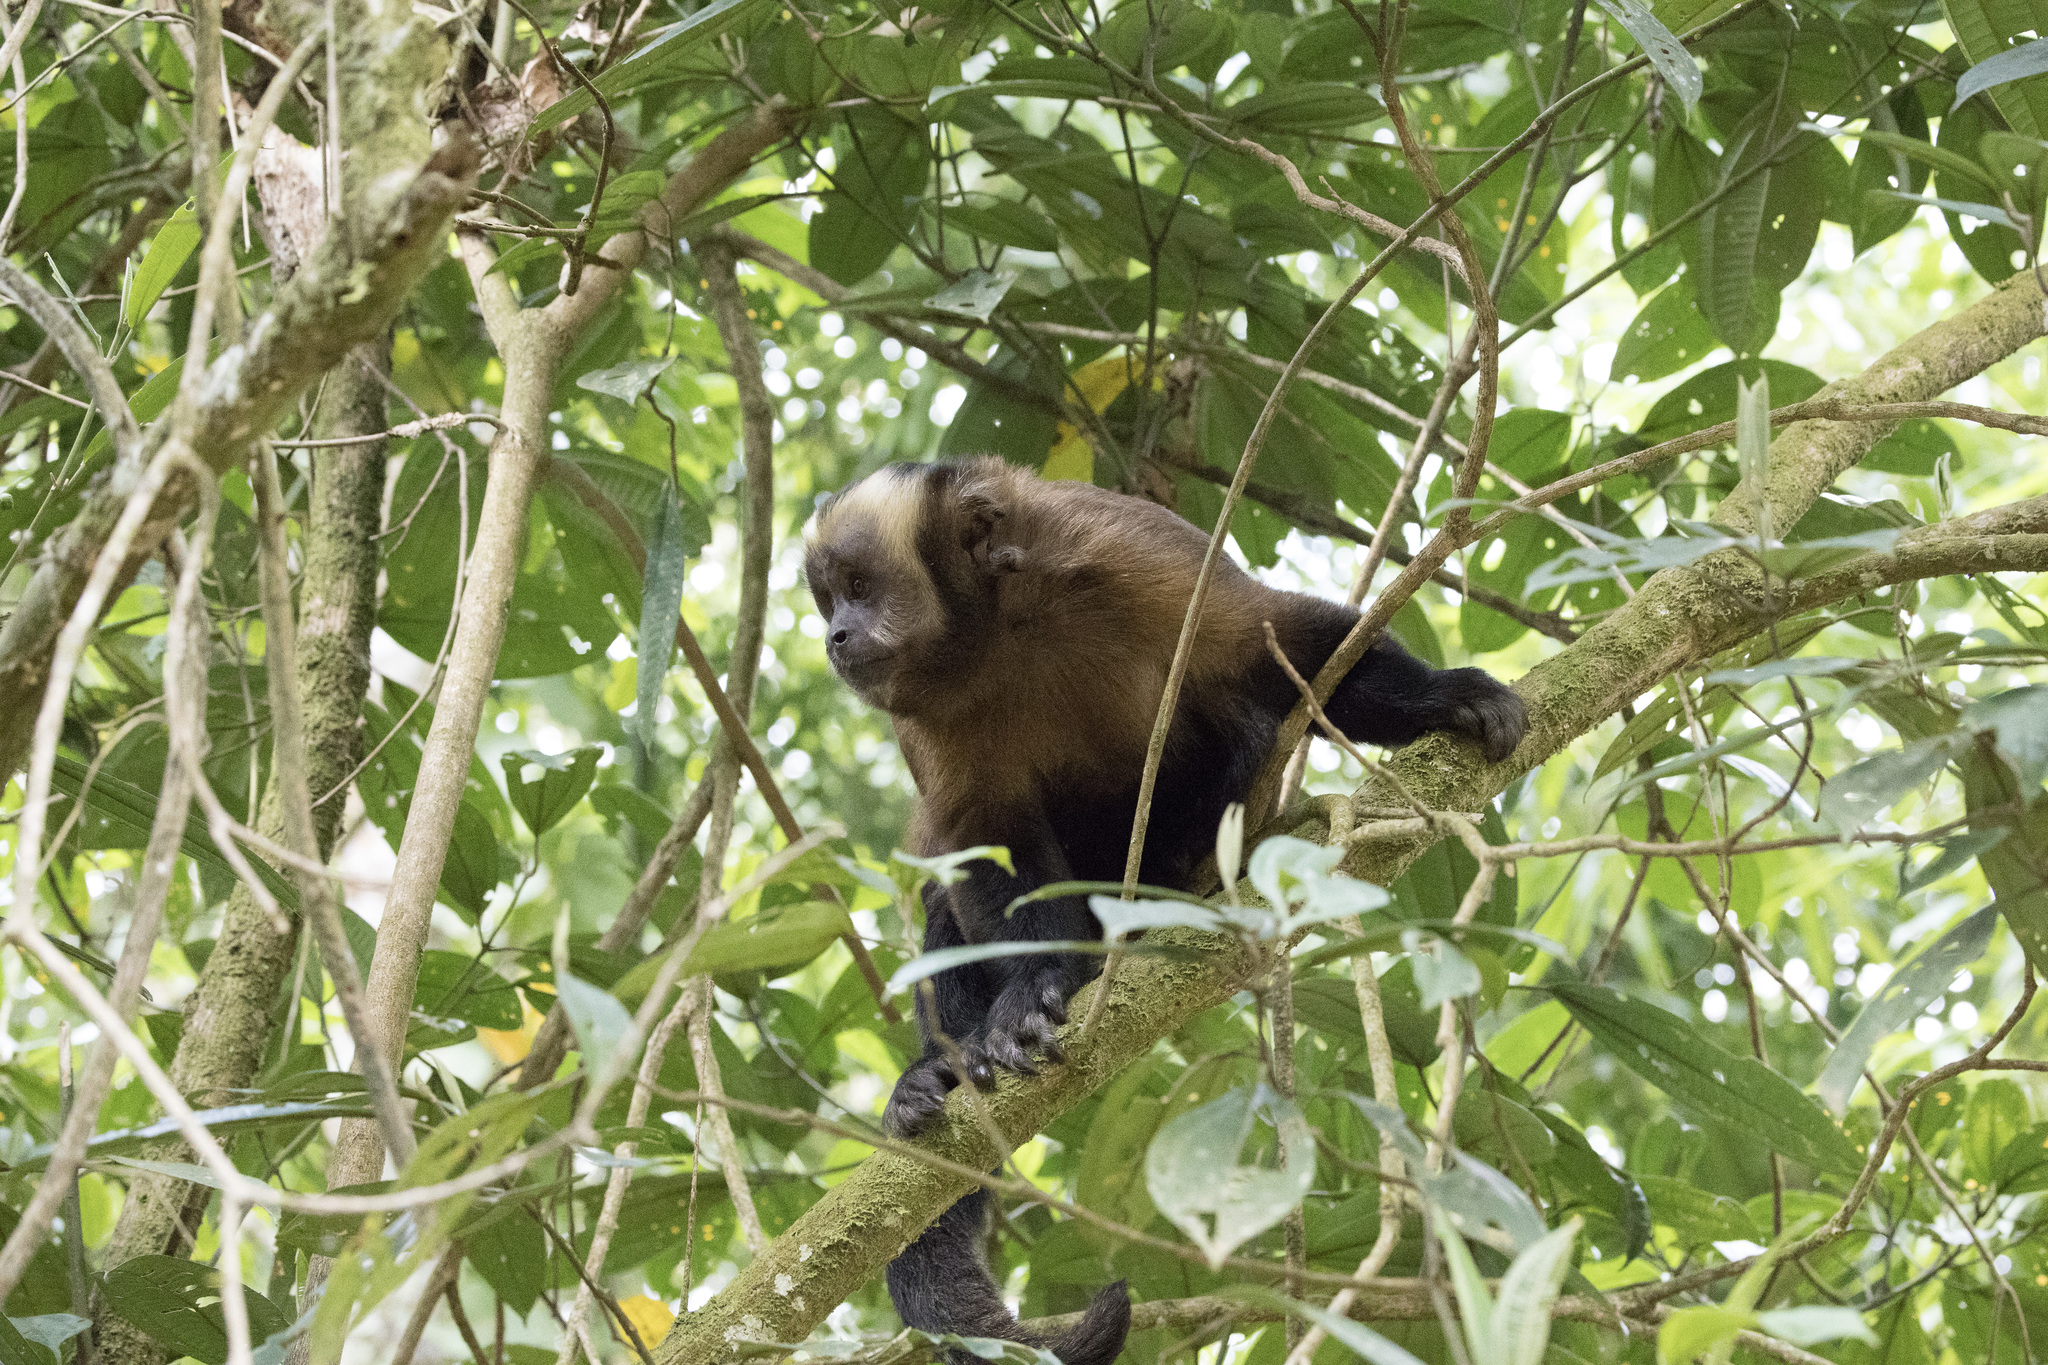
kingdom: Animalia
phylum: Chordata
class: Mammalia
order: Primates
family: Cebidae
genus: Sapajus
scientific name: Sapajus apella
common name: Tufted capuchin
